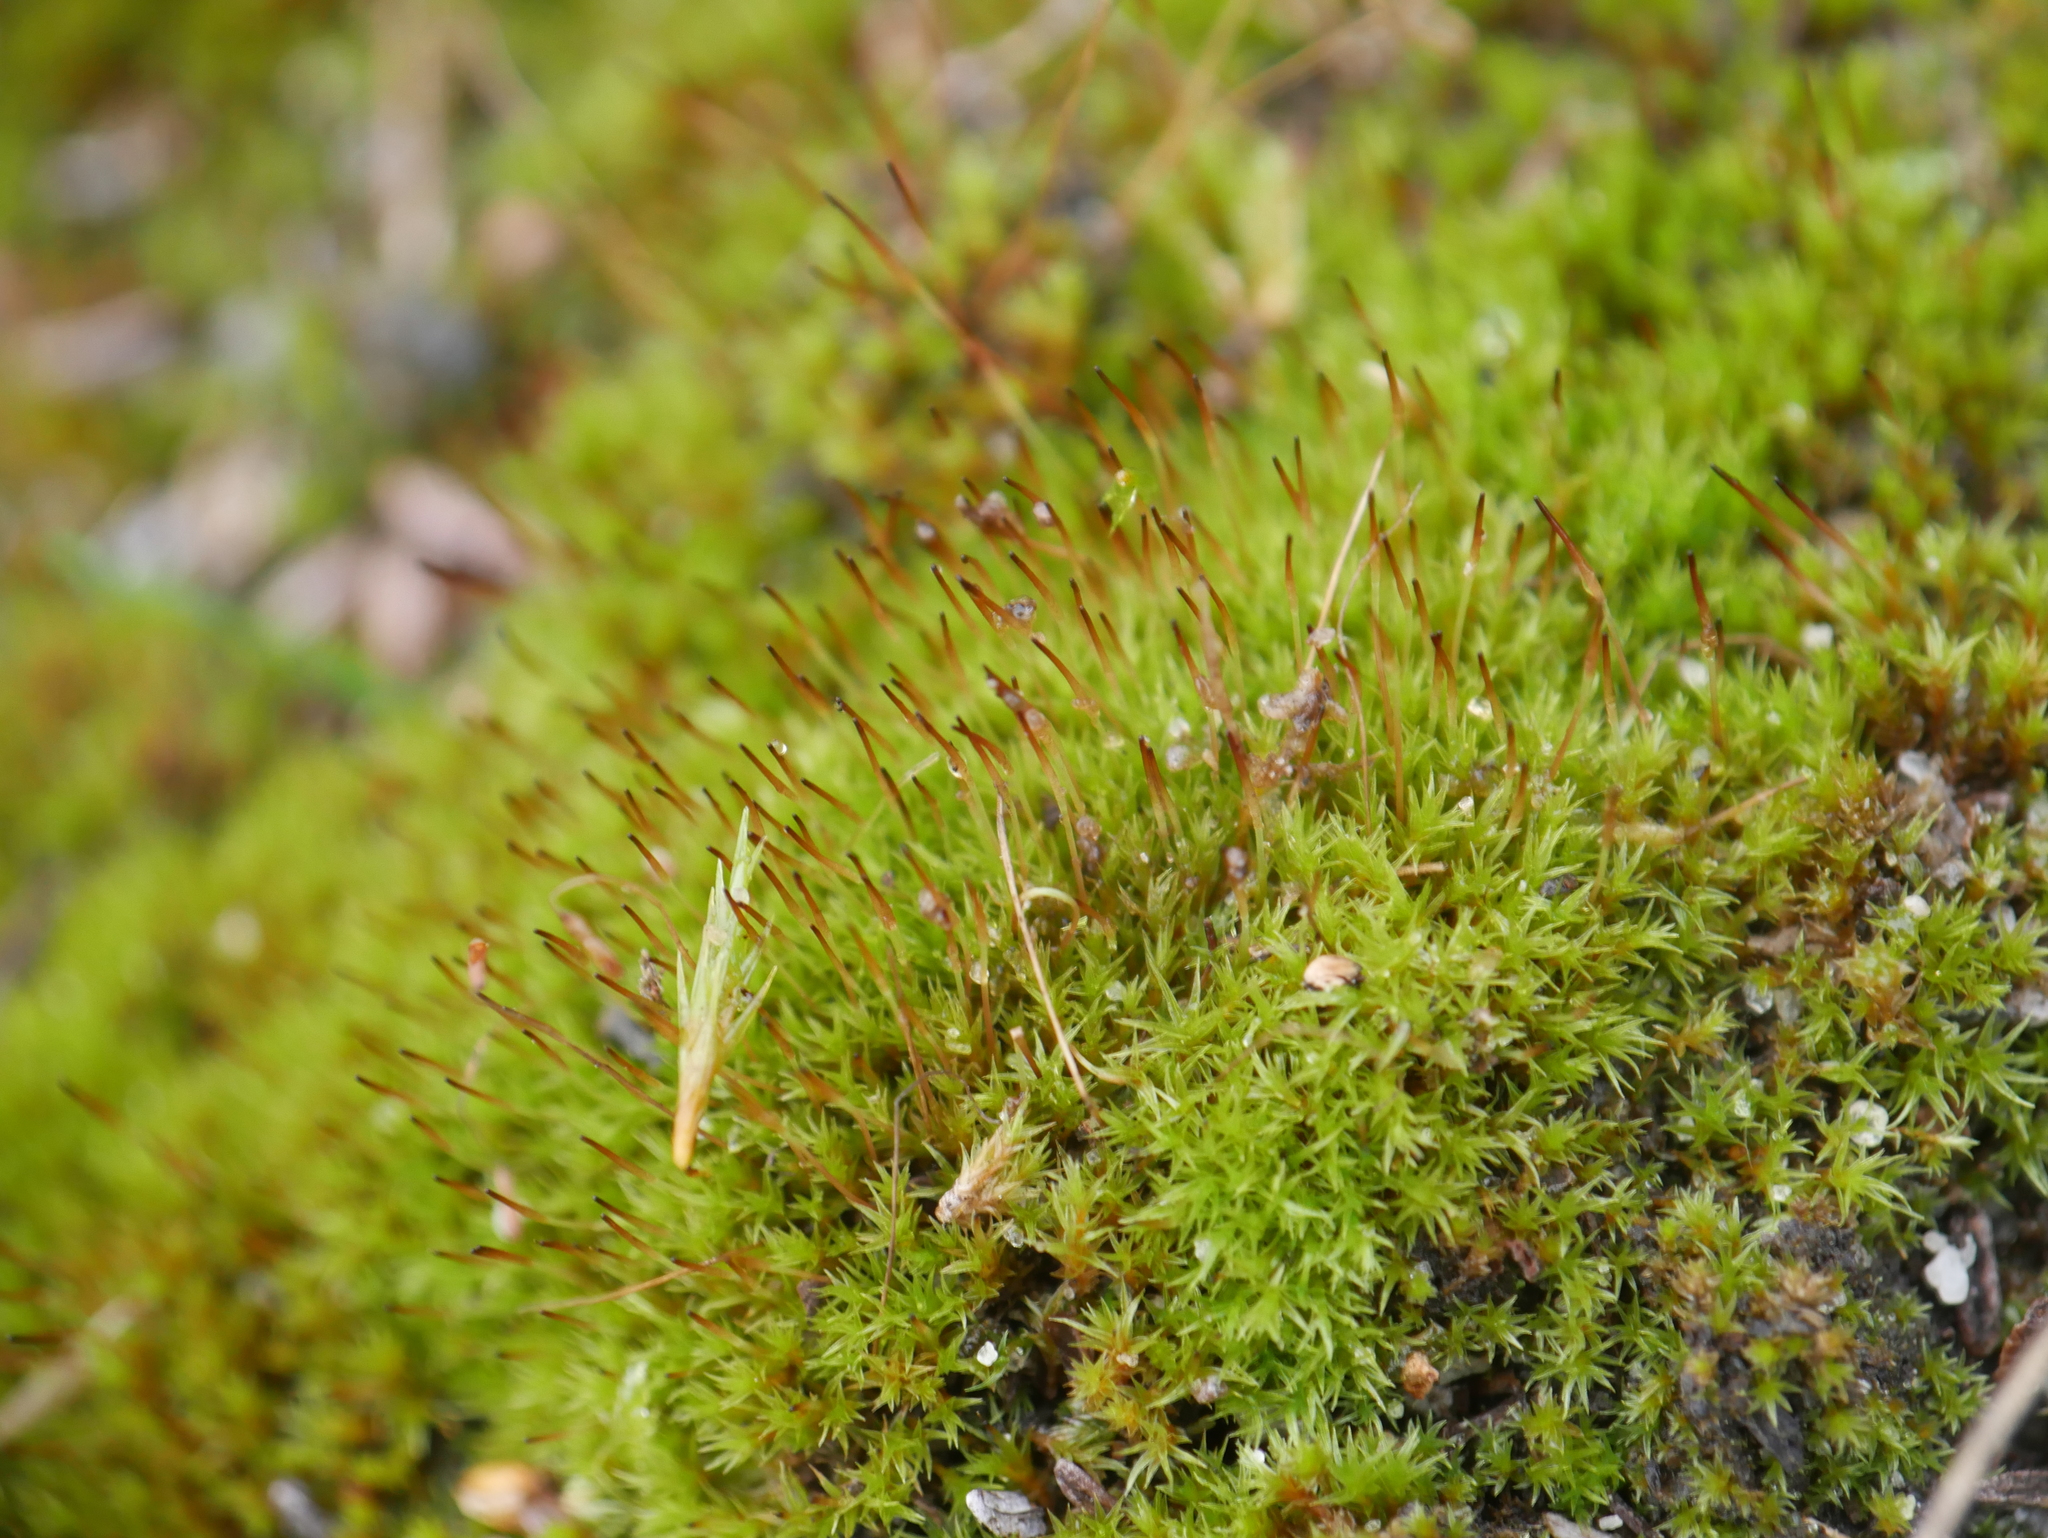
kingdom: Plantae
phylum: Bryophyta
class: Bryopsida
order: Dicranales
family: Ditrichaceae
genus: Ceratodon
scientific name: Ceratodon purpureus
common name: Redshank
